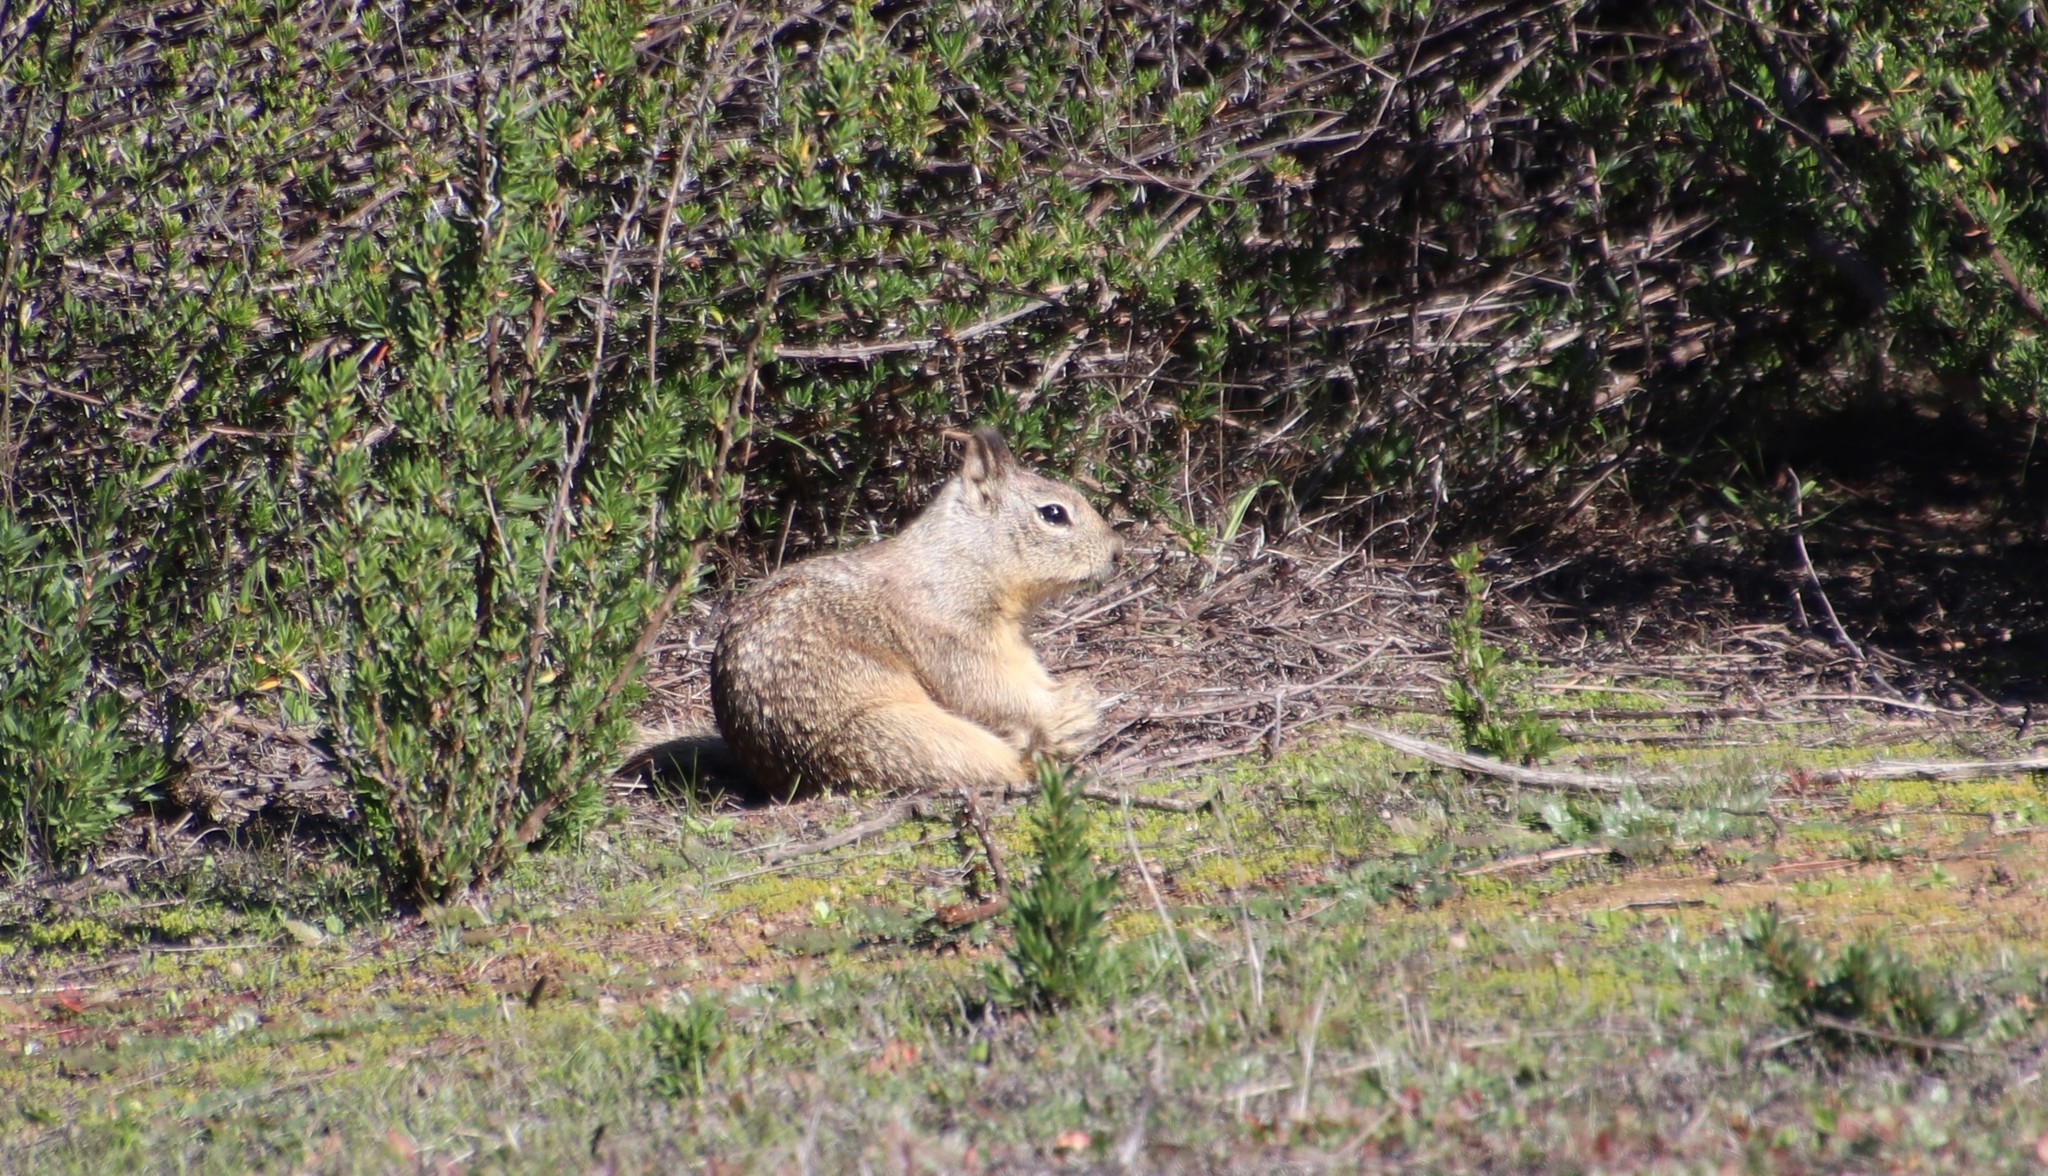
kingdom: Animalia
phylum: Chordata
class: Mammalia
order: Rodentia
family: Sciuridae
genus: Otospermophilus
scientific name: Otospermophilus beecheyi
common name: California ground squirrel
